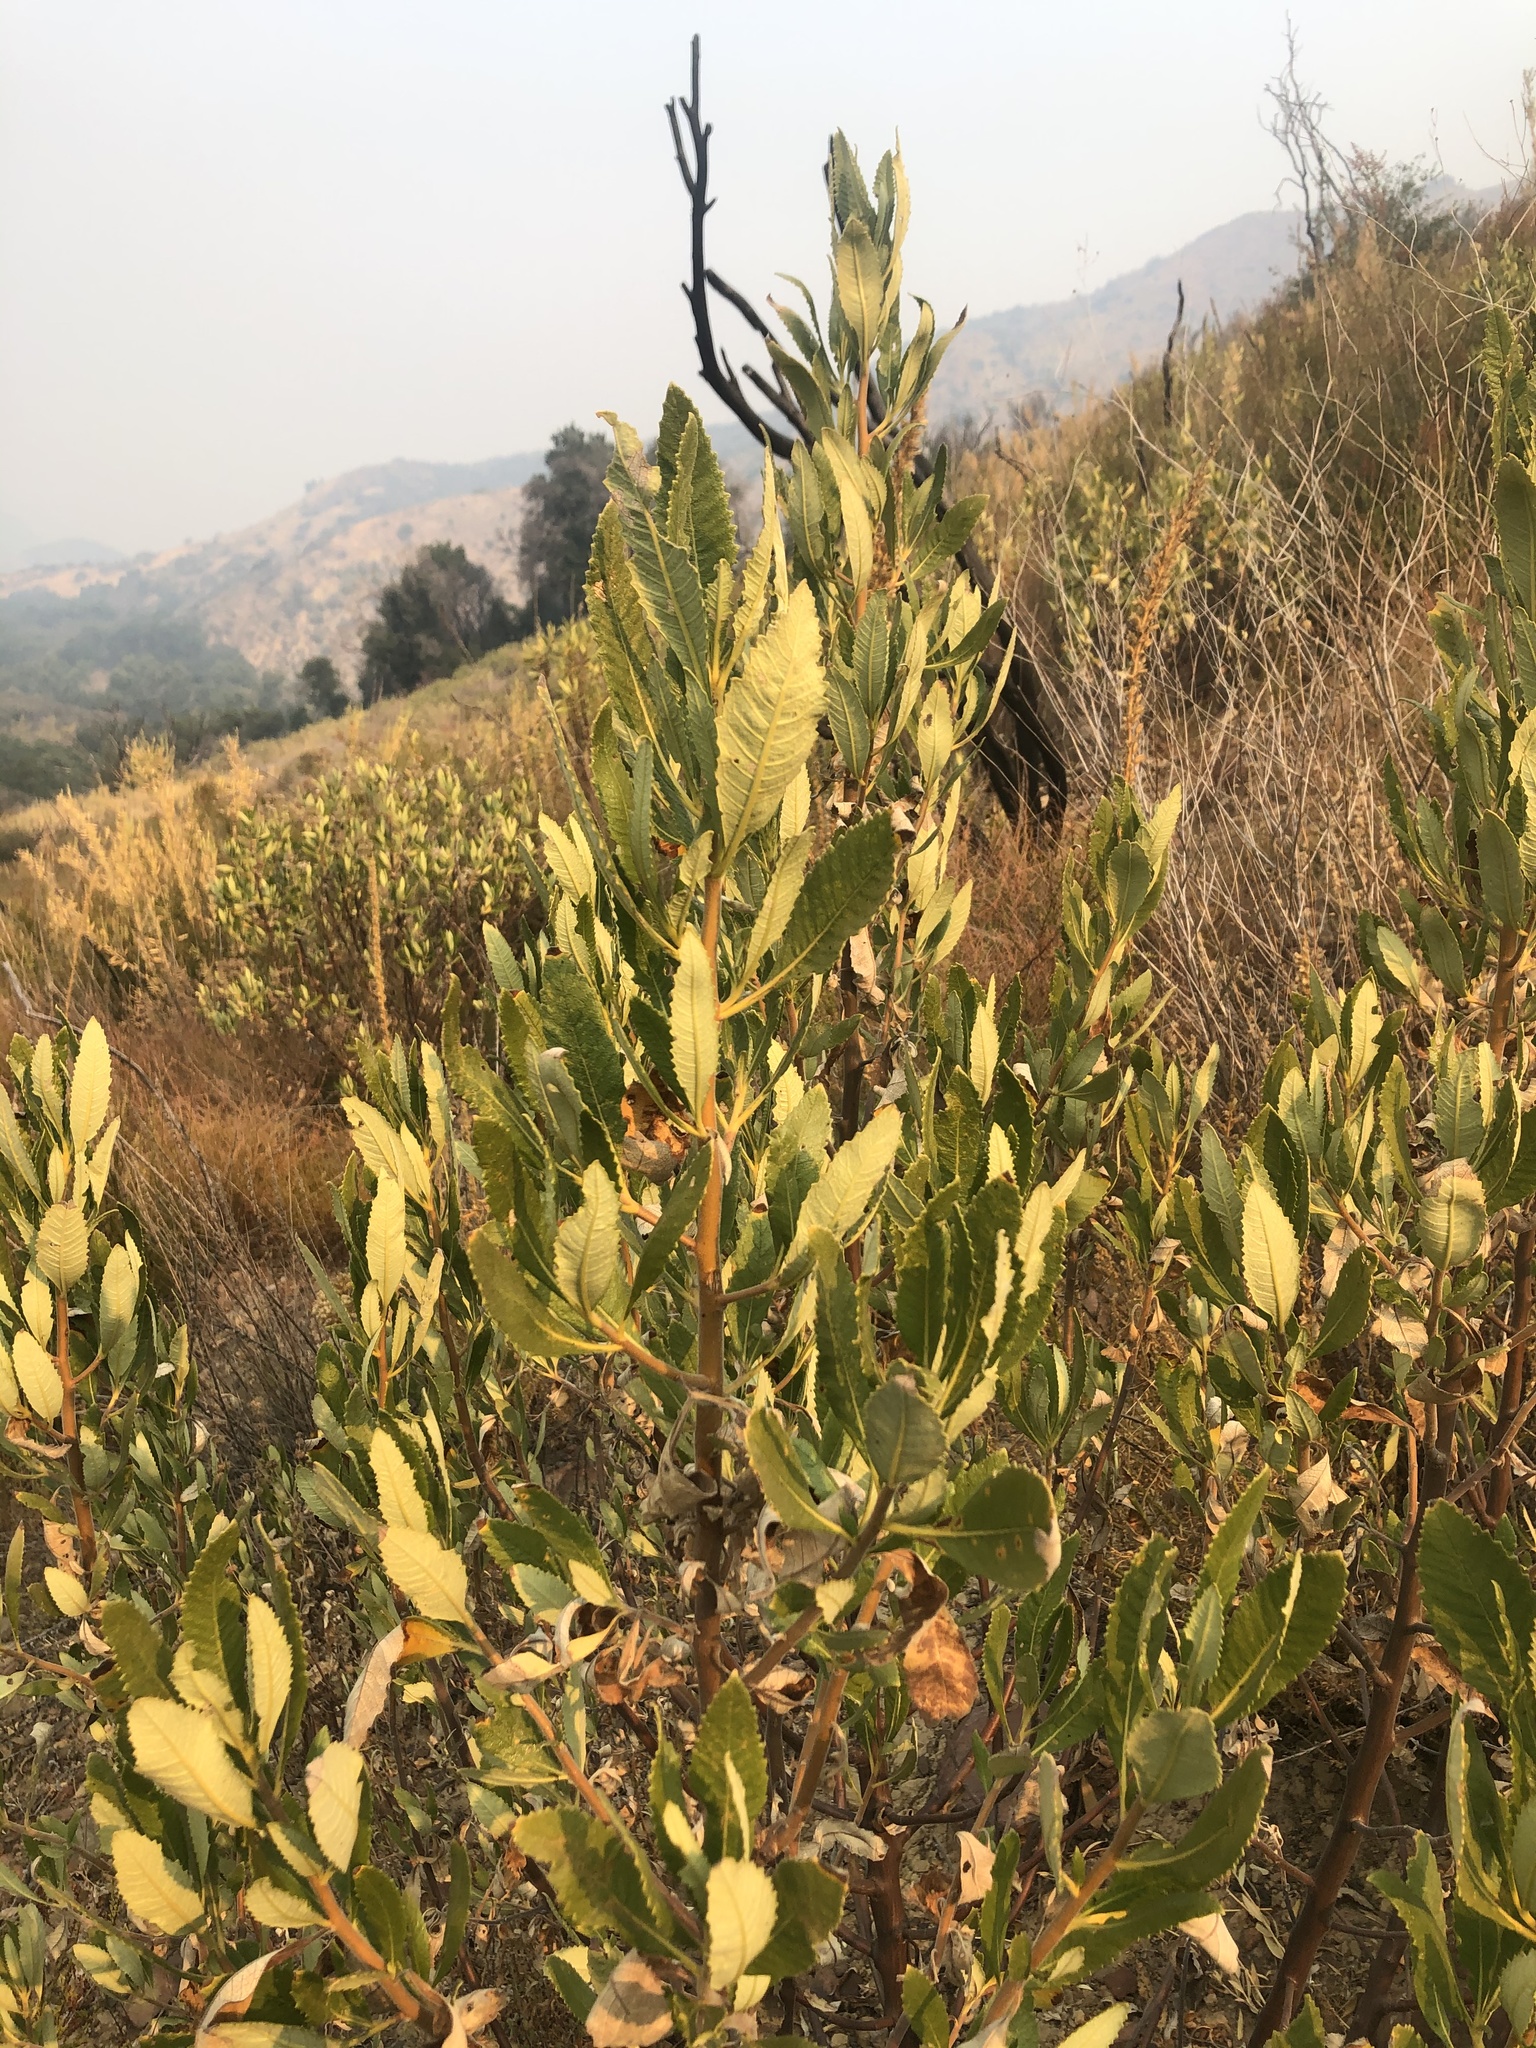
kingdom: Plantae
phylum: Tracheophyta
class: Magnoliopsida
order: Boraginales
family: Namaceae
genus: Eriodictyon
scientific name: Eriodictyon crassifolium
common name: Thick-leaf yerba-santa
